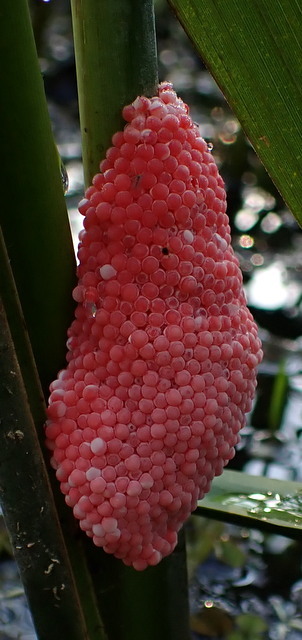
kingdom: Animalia
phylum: Mollusca
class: Gastropoda
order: Architaenioglossa
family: Ampullariidae
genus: Pomacea
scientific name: Pomacea maculata
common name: Giant applesnail
